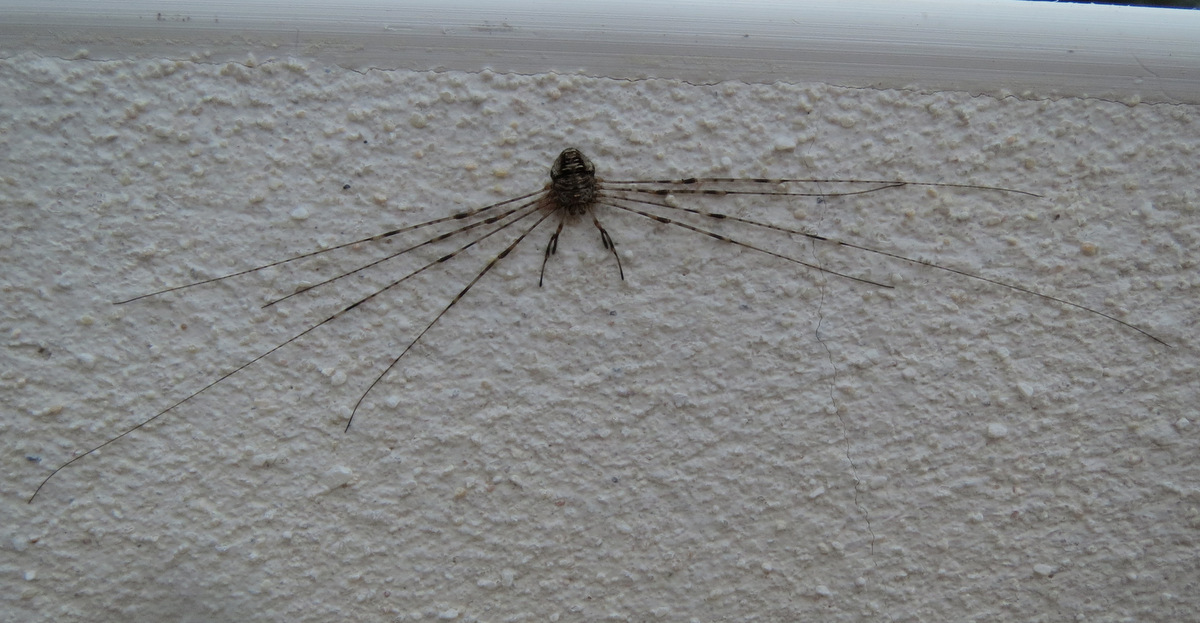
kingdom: Animalia
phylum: Arthropoda
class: Arachnida
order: Opiliones
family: Phalangiidae
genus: Dicranopalpus
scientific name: Dicranopalpus ramosus
